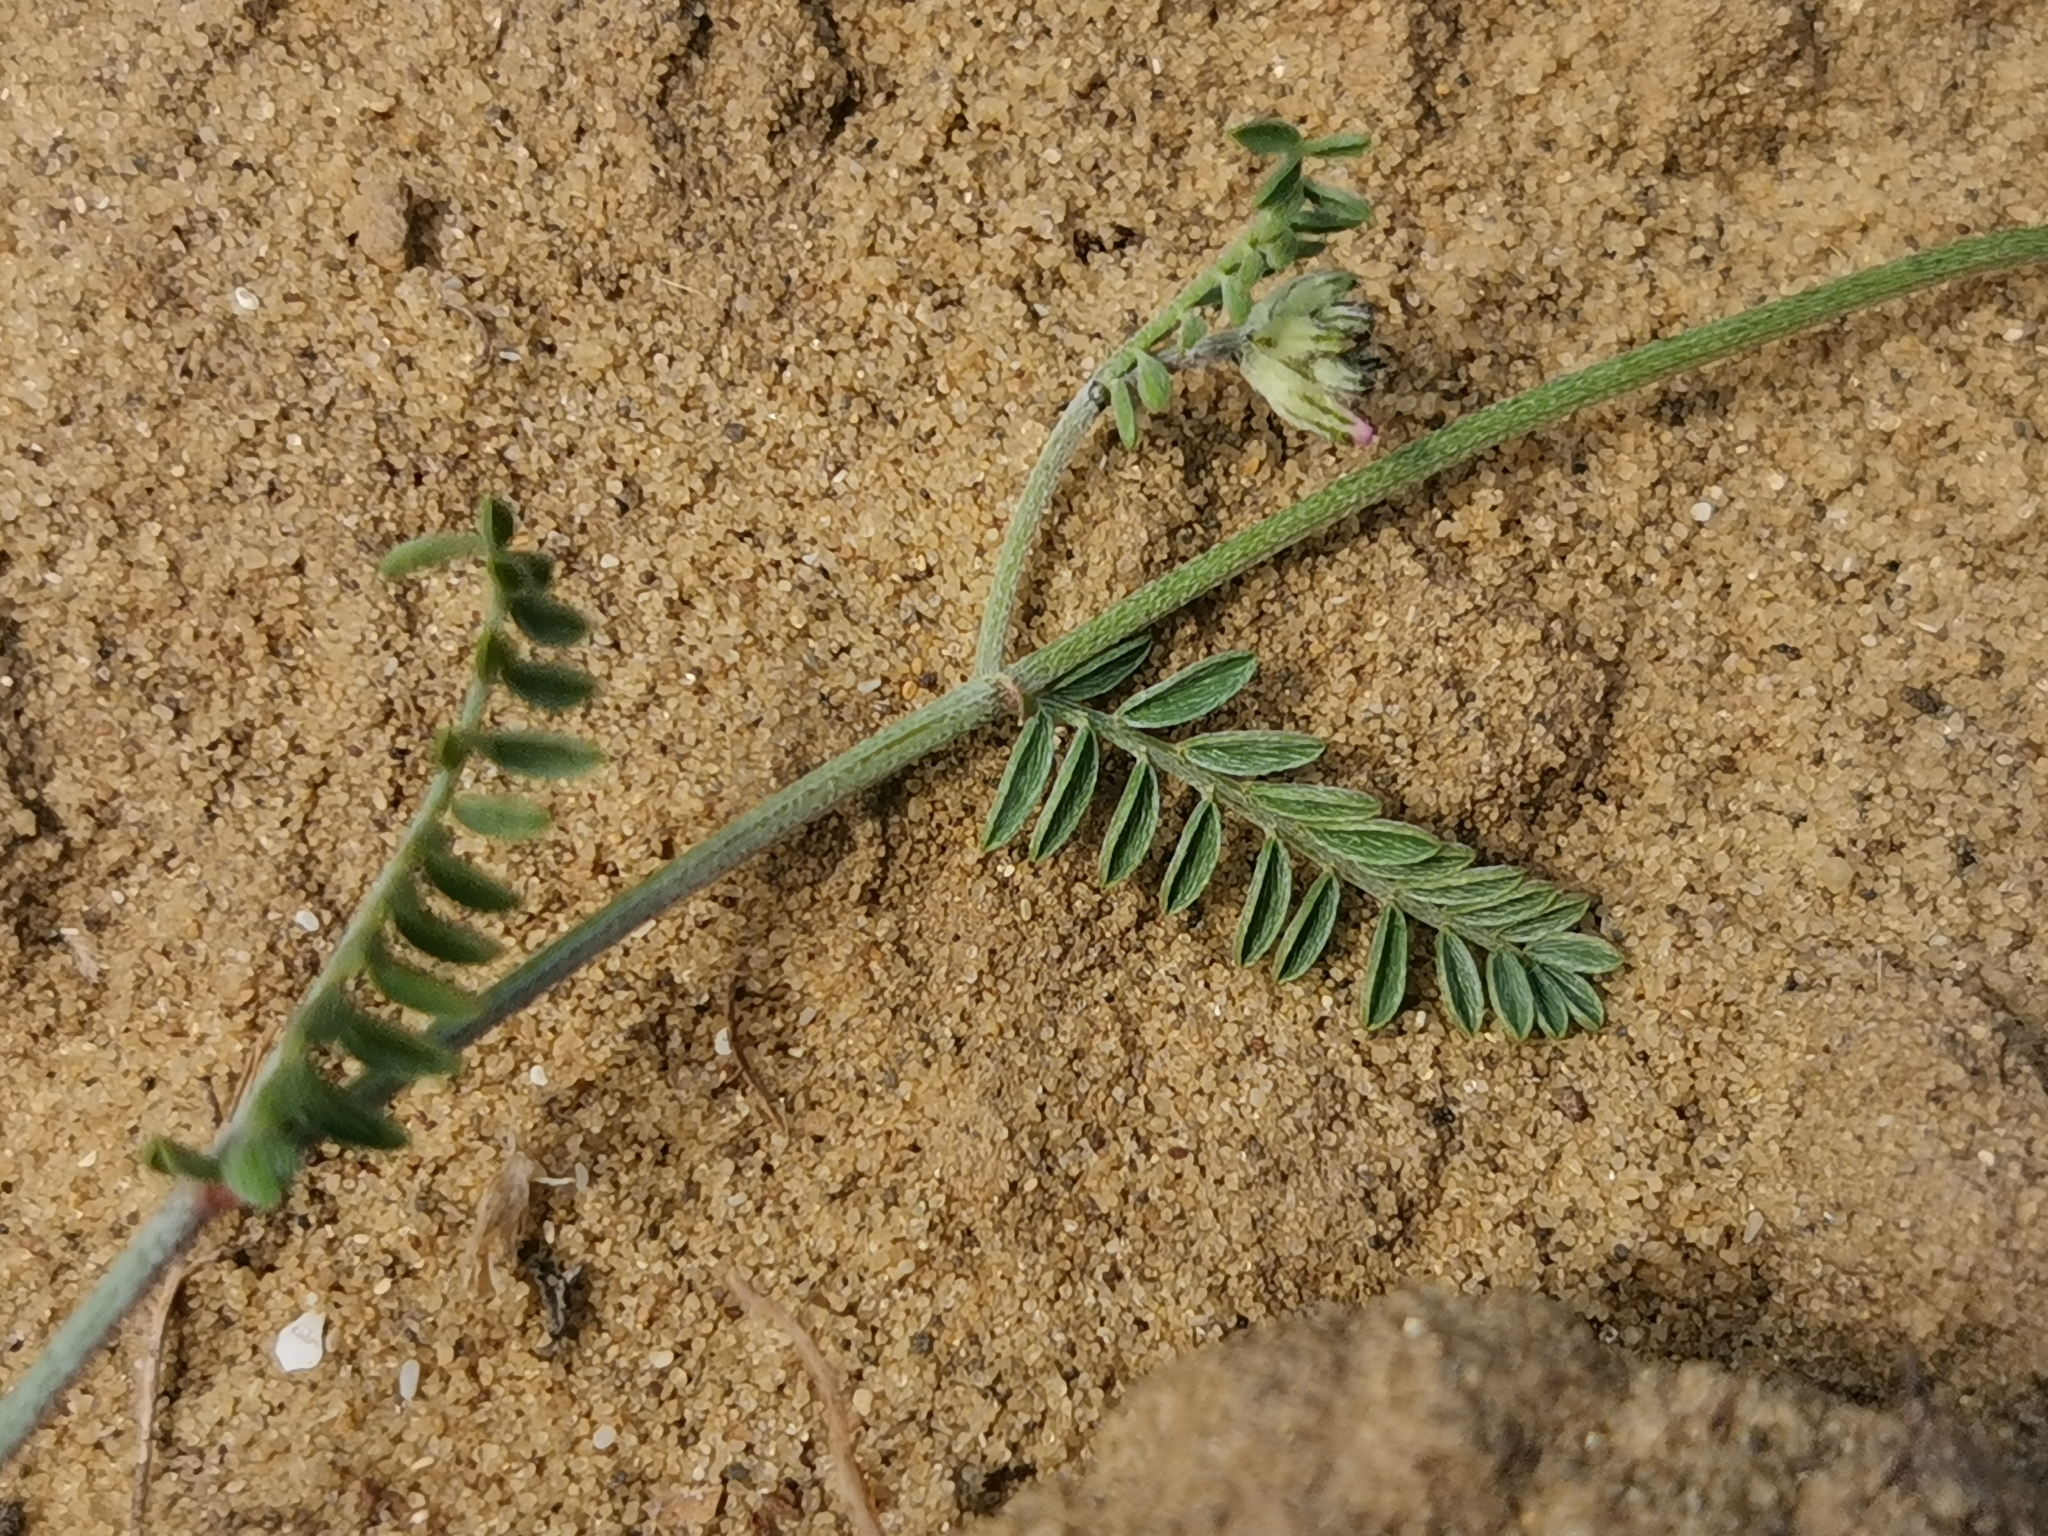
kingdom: Plantae
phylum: Tracheophyta
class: Magnoliopsida
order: Fabales
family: Fabaceae
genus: Astragalus
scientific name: Astragalus onobrychis
